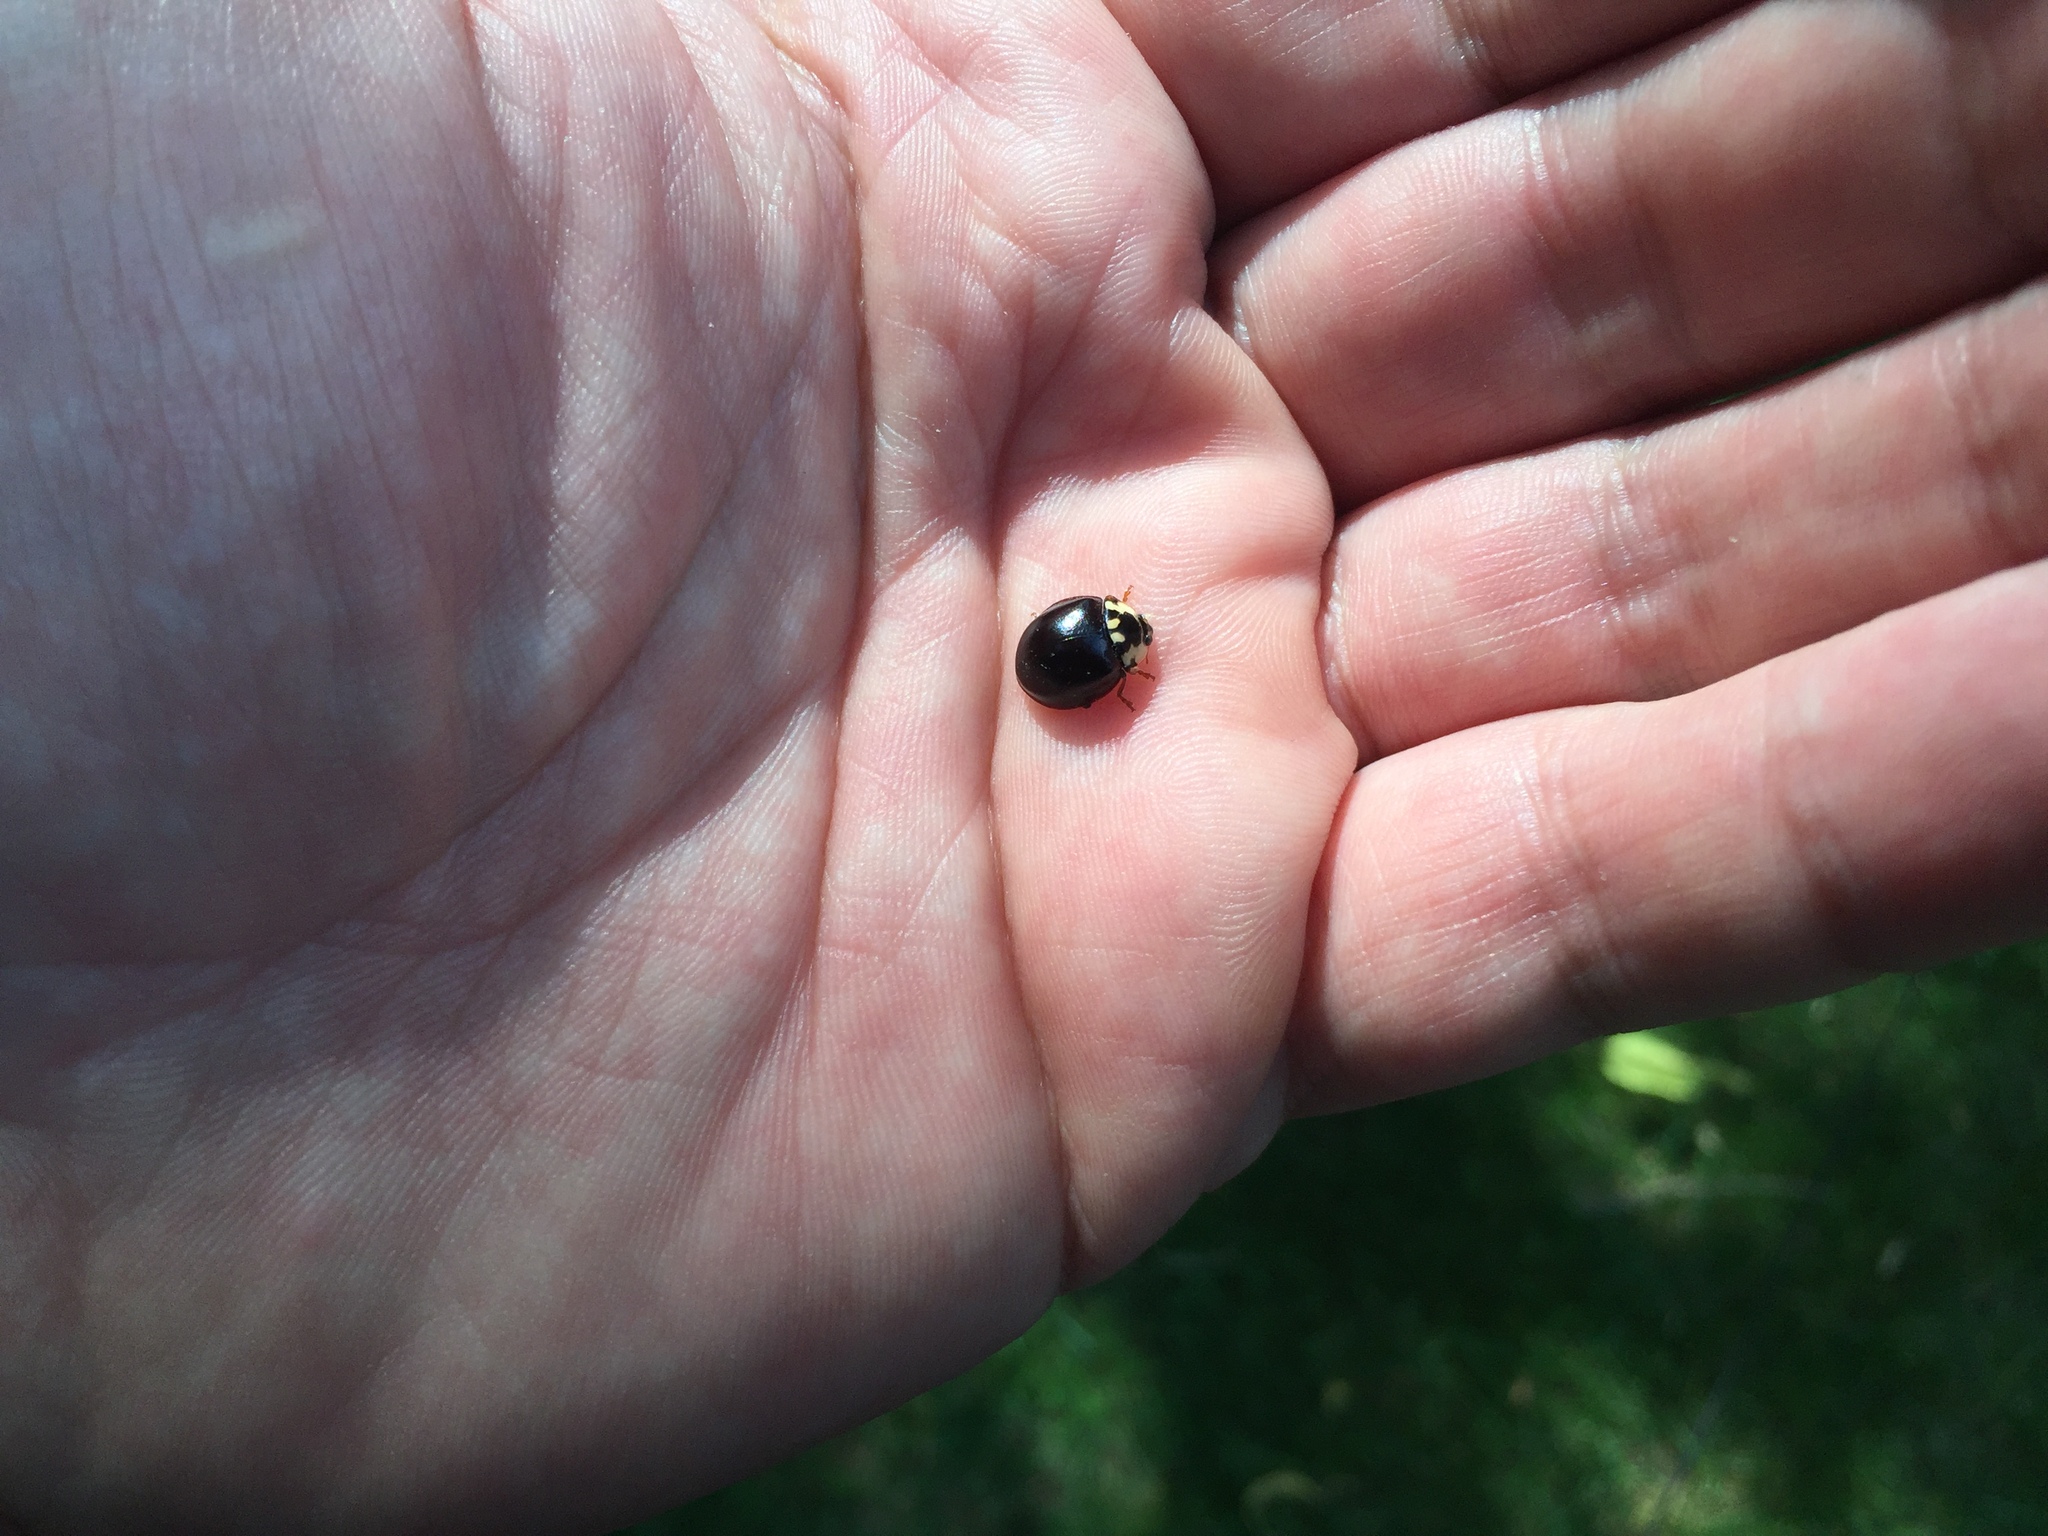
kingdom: Animalia
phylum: Arthropoda
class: Insecta
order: Coleoptera
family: Coccinellidae
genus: Anatis
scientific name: Anatis labiculata
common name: Fifteen-spotted lady beetle
